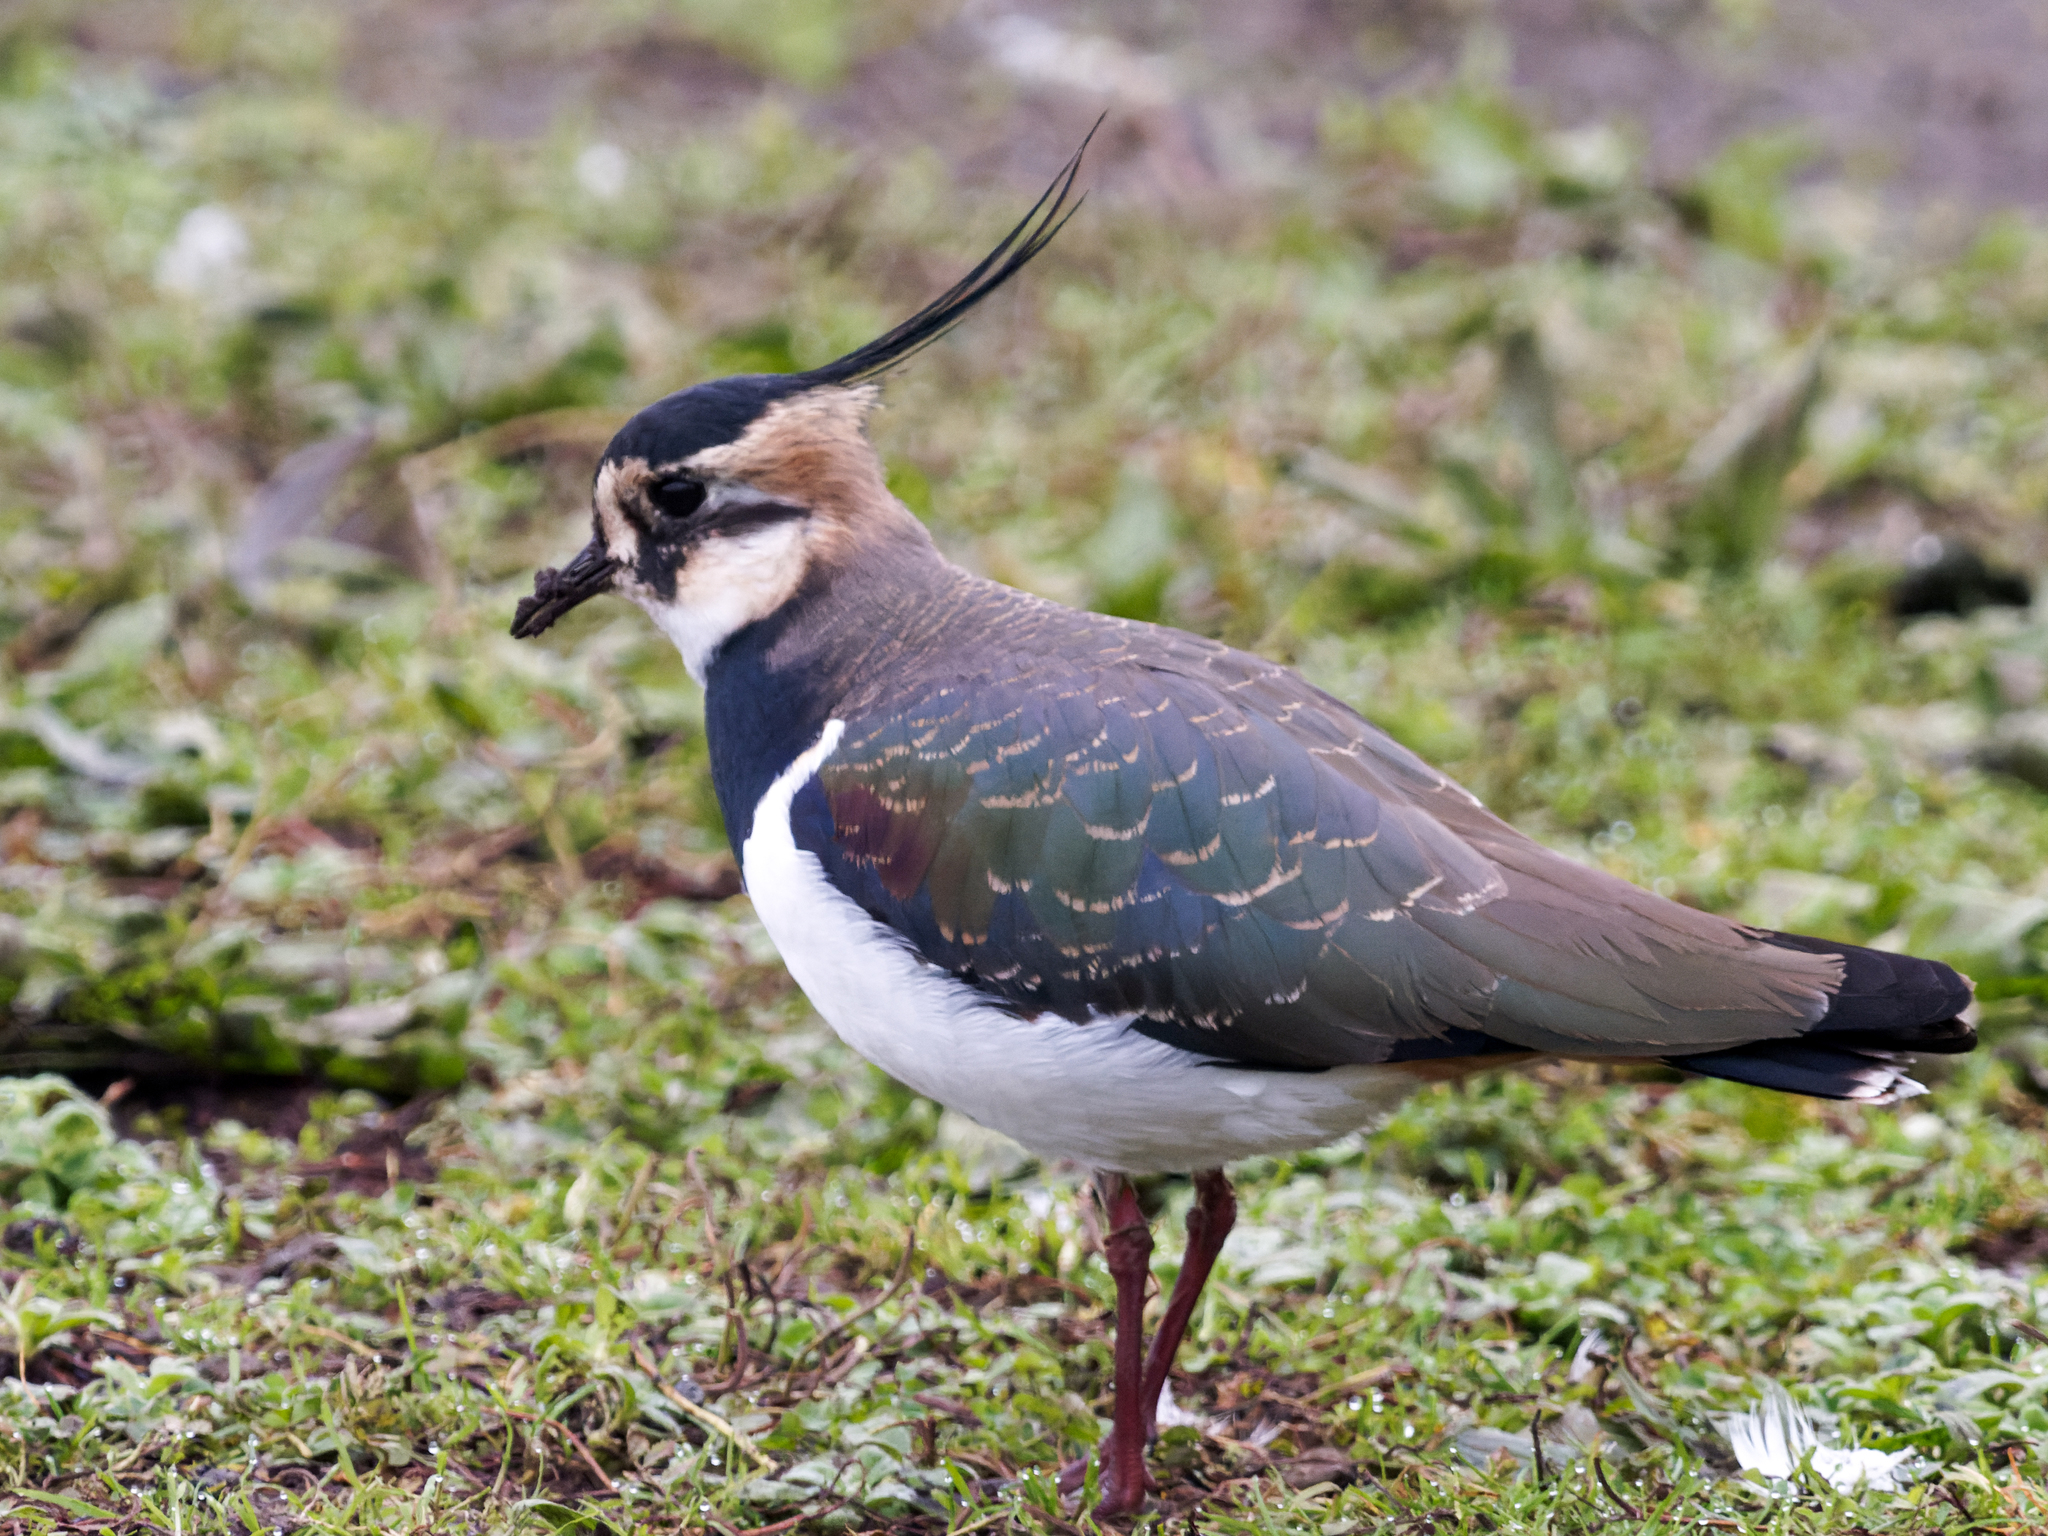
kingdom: Animalia
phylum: Chordata
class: Aves
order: Charadriiformes
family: Charadriidae
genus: Vanellus
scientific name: Vanellus vanellus
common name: Northern lapwing
